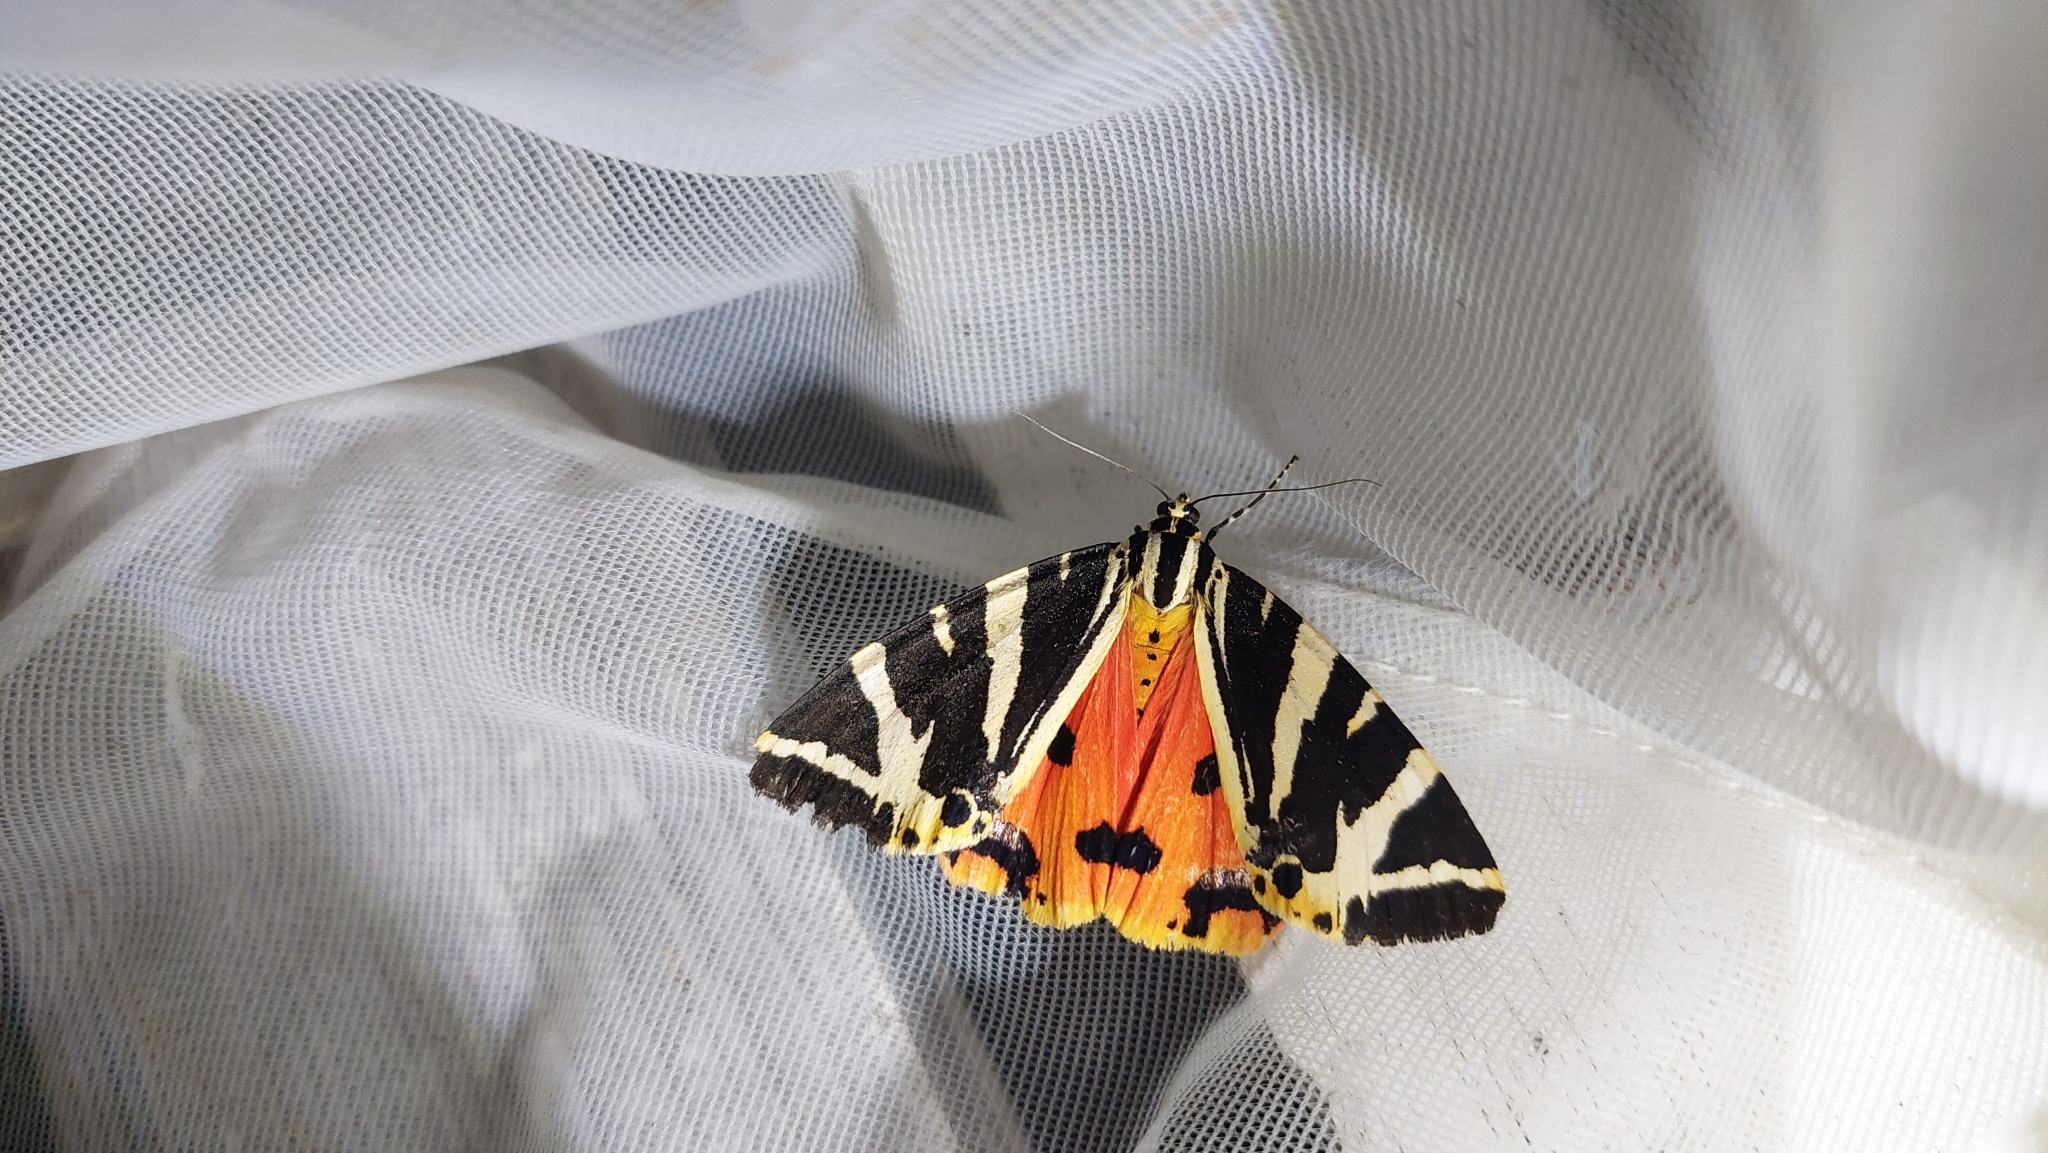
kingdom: Animalia
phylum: Arthropoda
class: Insecta
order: Lepidoptera
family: Erebidae
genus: Euplagia
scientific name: Euplagia quadripunctaria
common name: Jersey tiger
